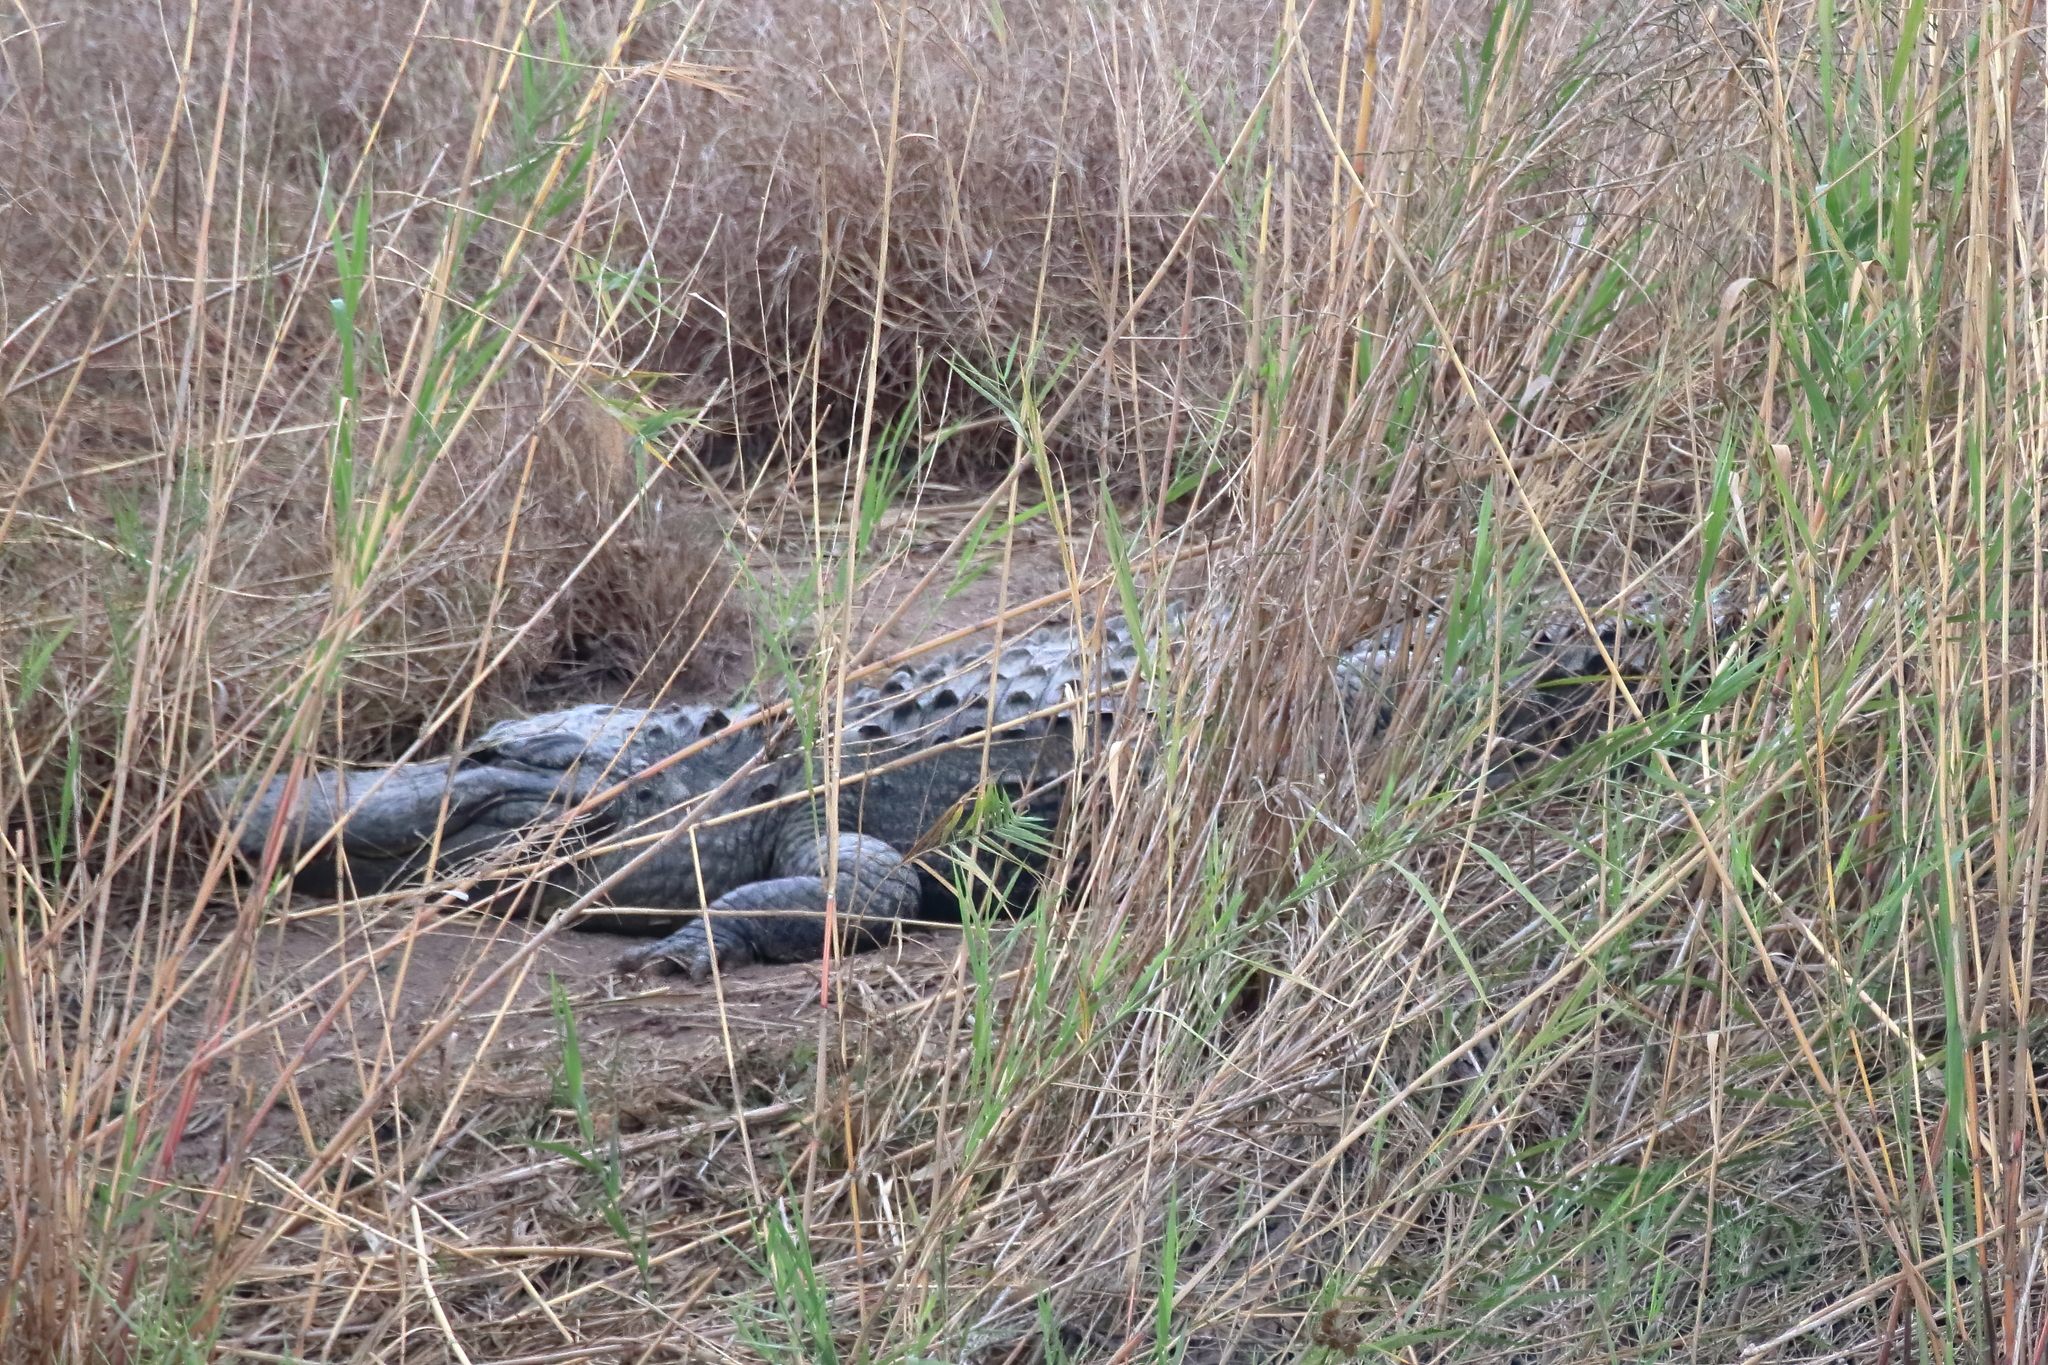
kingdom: Animalia
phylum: Chordata
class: Crocodylia
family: Alligatoridae
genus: Alligator
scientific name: Alligator mississippiensis
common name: American alligator
